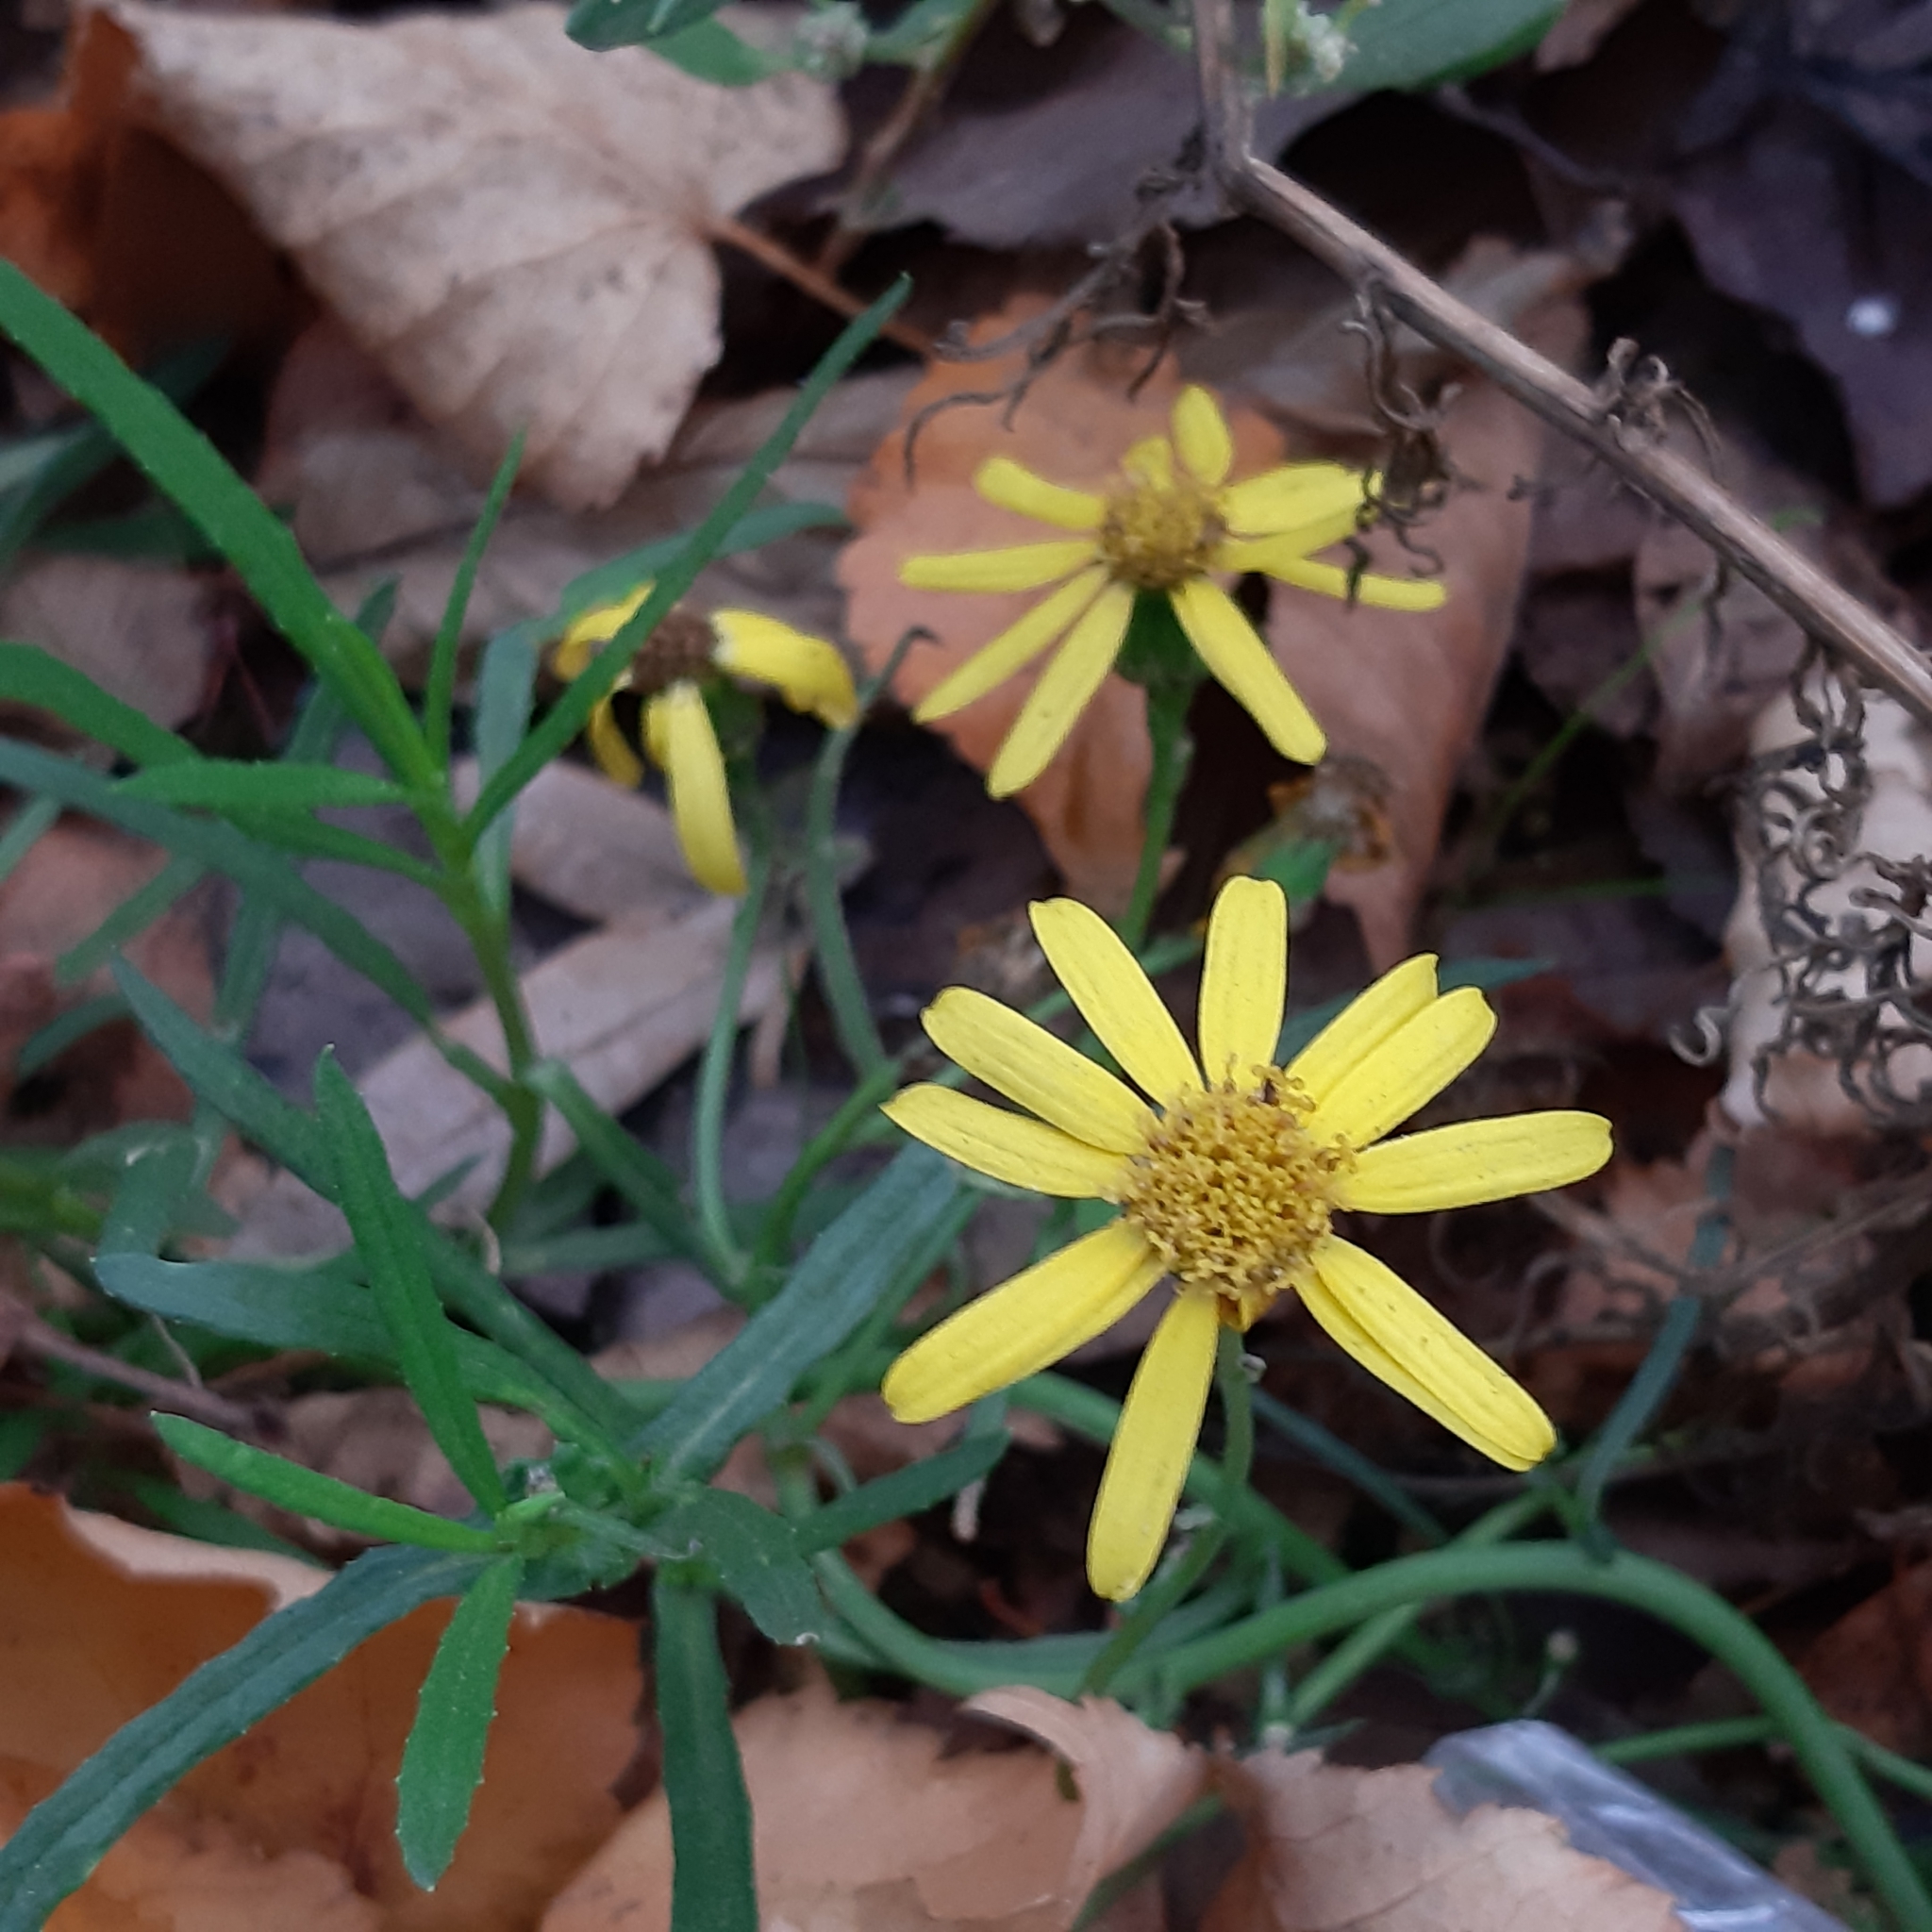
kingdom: Plantae
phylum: Tracheophyta
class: Magnoliopsida
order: Asterales
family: Asteraceae
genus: Senecio
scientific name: Senecio inaequidens
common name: Narrow-leaved ragwort
